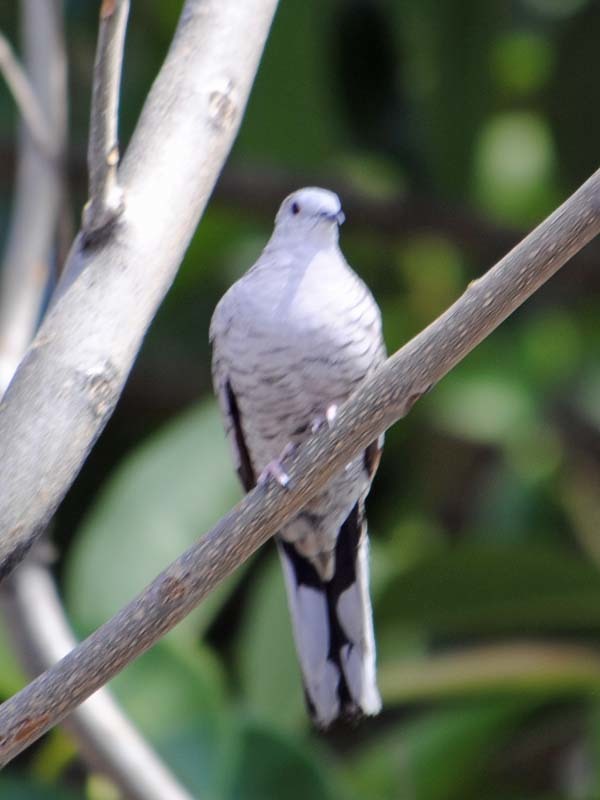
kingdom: Animalia
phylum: Chordata
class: Aves
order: Columbiformes
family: Columbidae
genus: Columbina
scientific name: Columbina inca
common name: Inca dove
